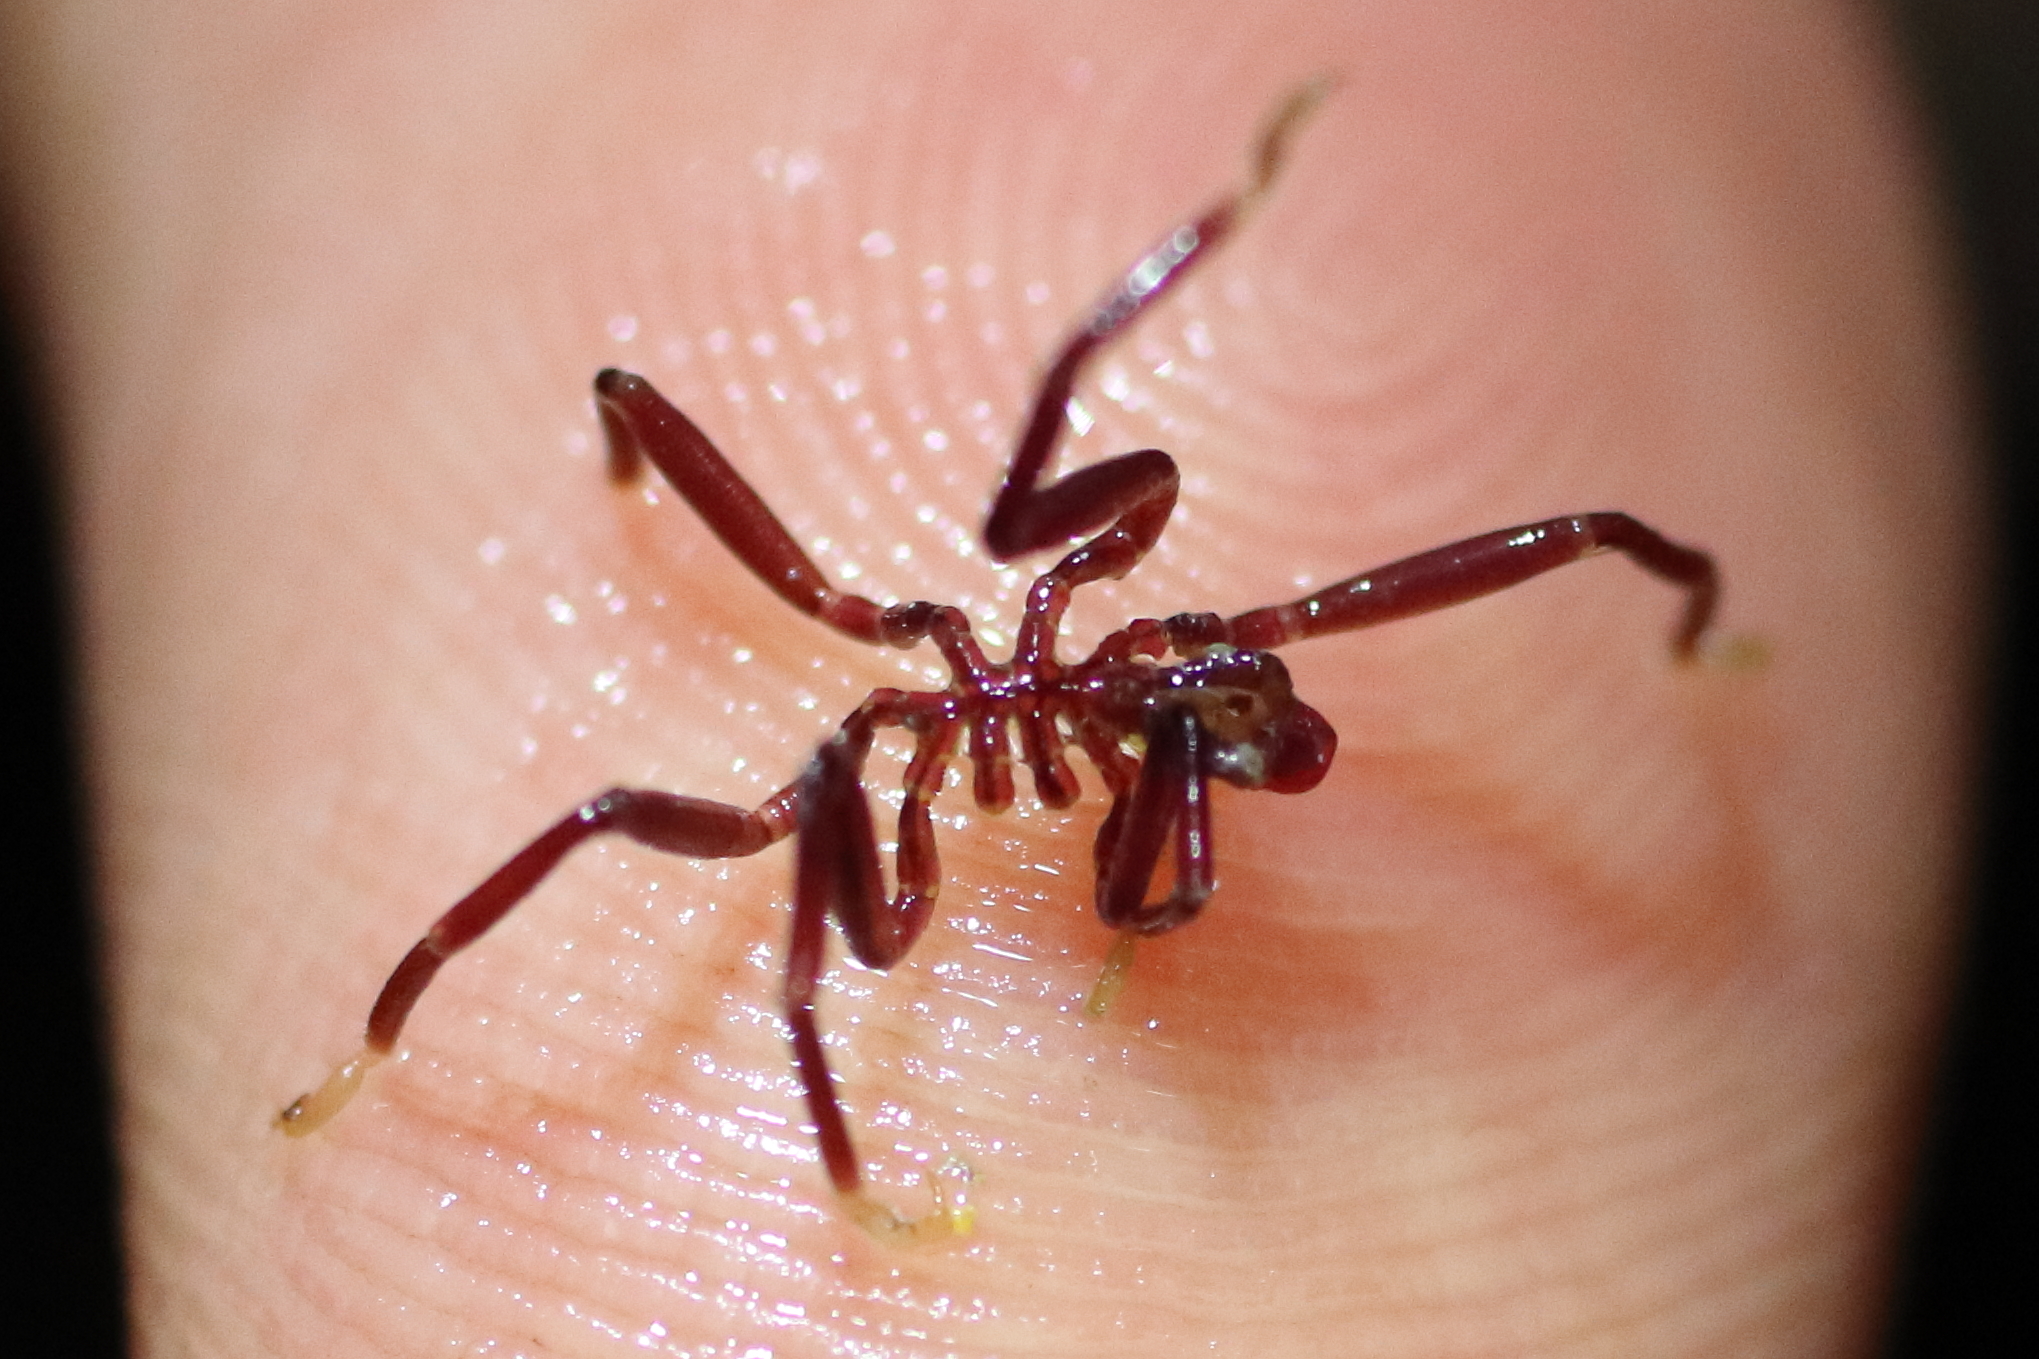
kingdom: Animalia
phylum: Arthropoda
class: Pycnogonida
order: Pantopoda
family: Phoxichilidiidae
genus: Phoxichilidium
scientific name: Phoxichilidium femoratum
